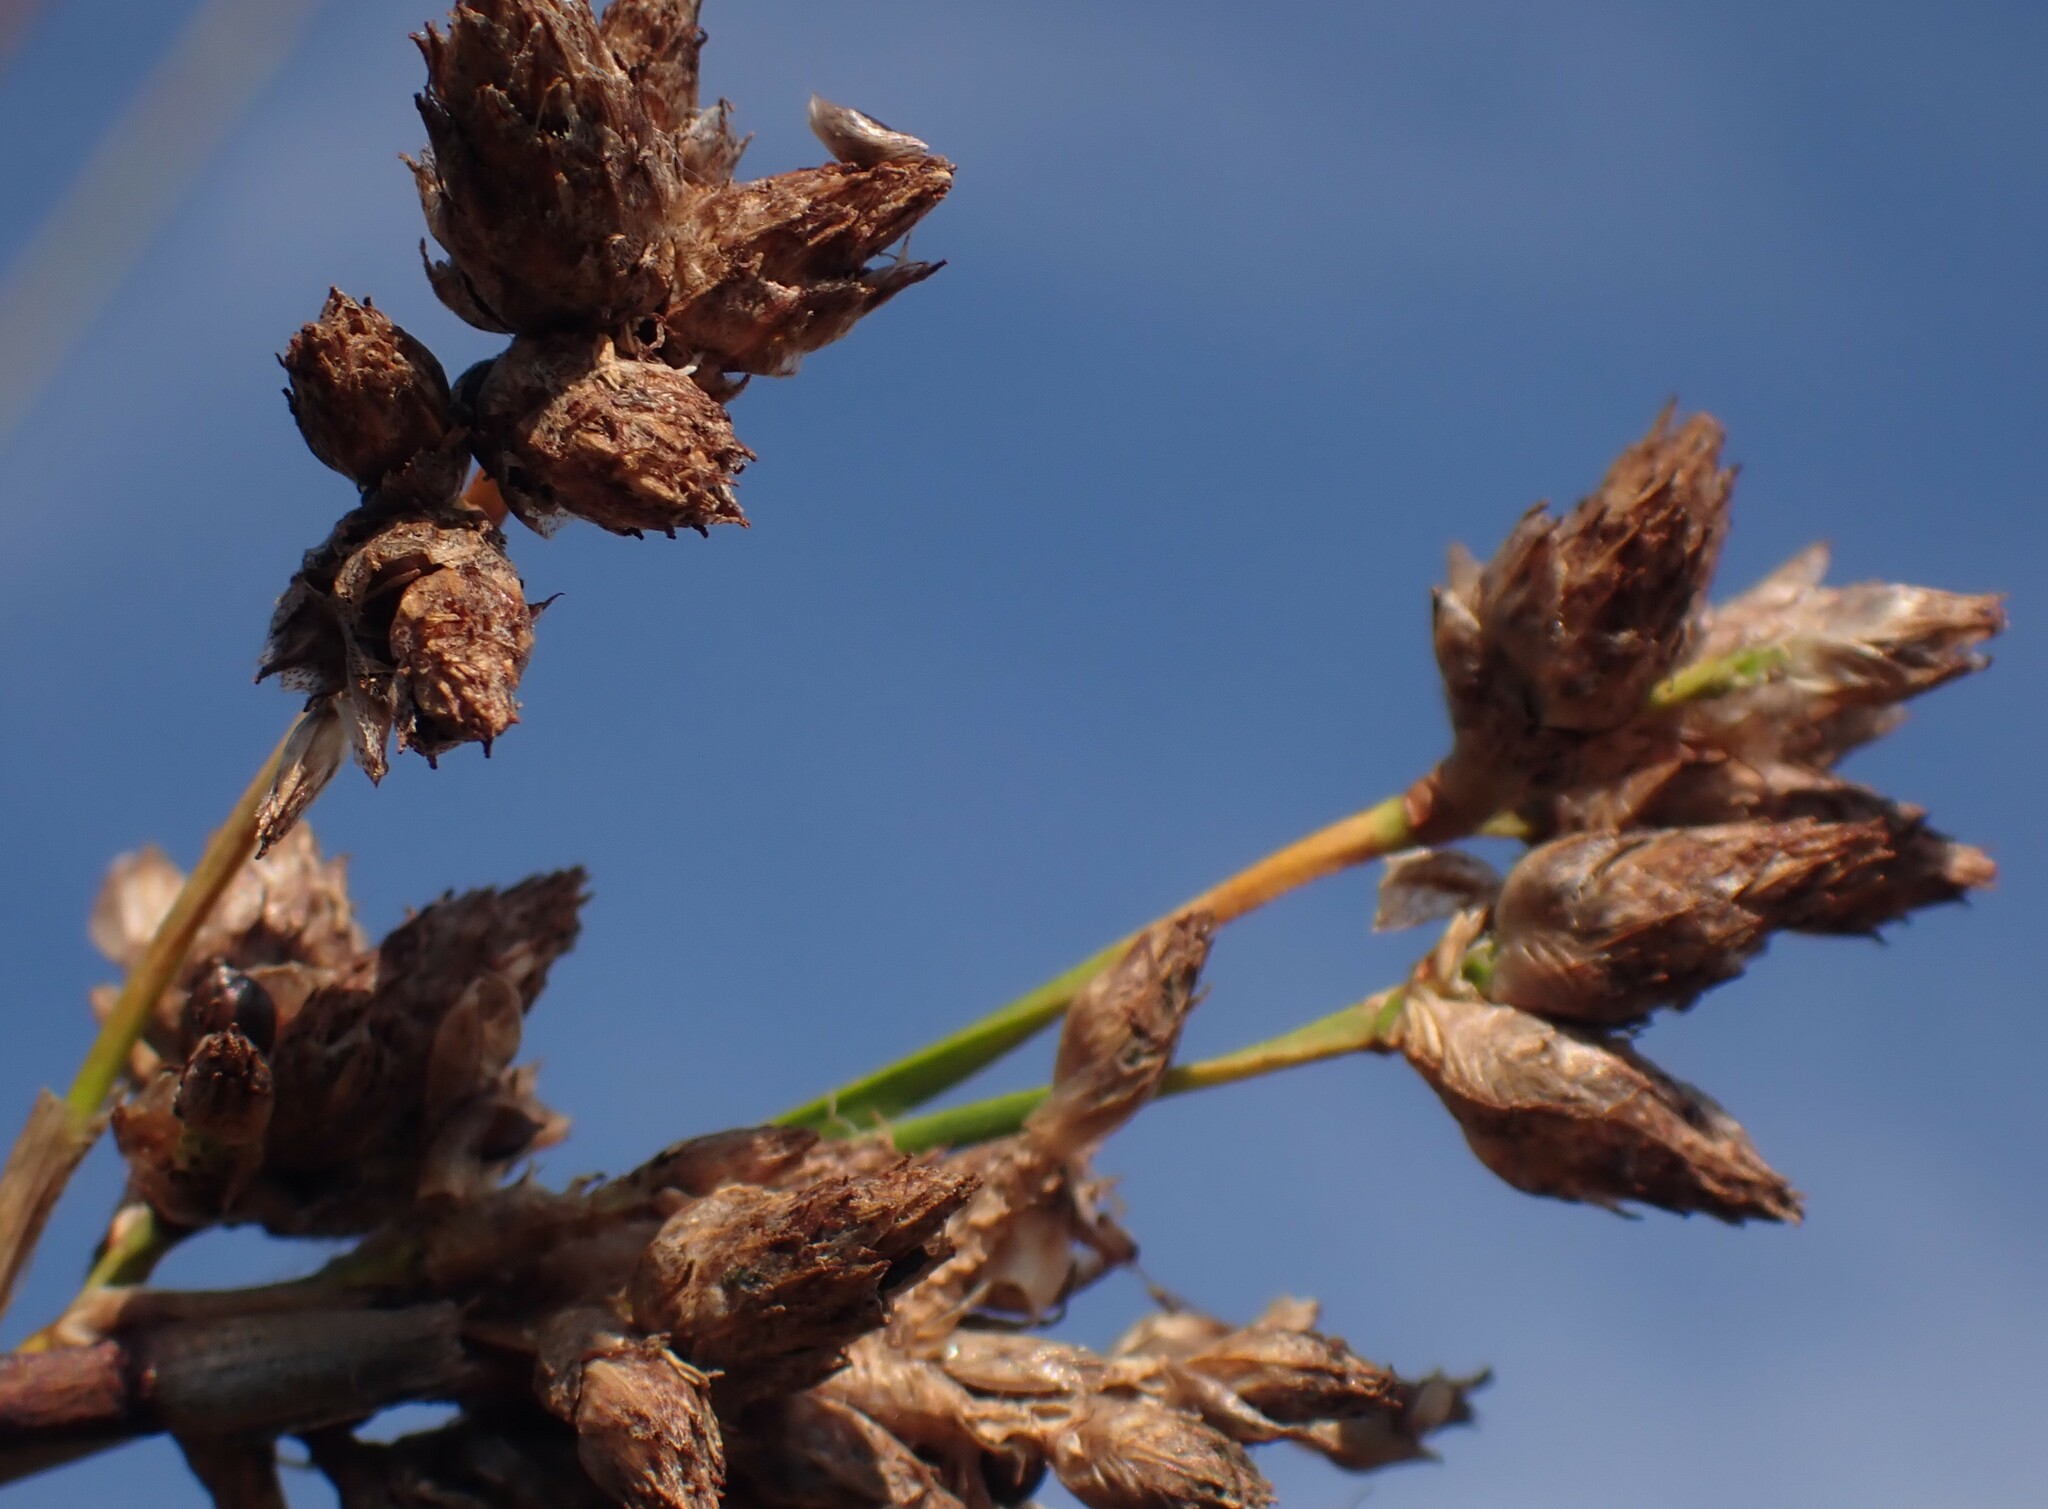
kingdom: Plantae
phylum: Tracheophyta
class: Liliopsida
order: Poales
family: Cyperaceae
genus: Schoenoplectus
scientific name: Schoenoplectus acutus
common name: Hardstem bulrush
